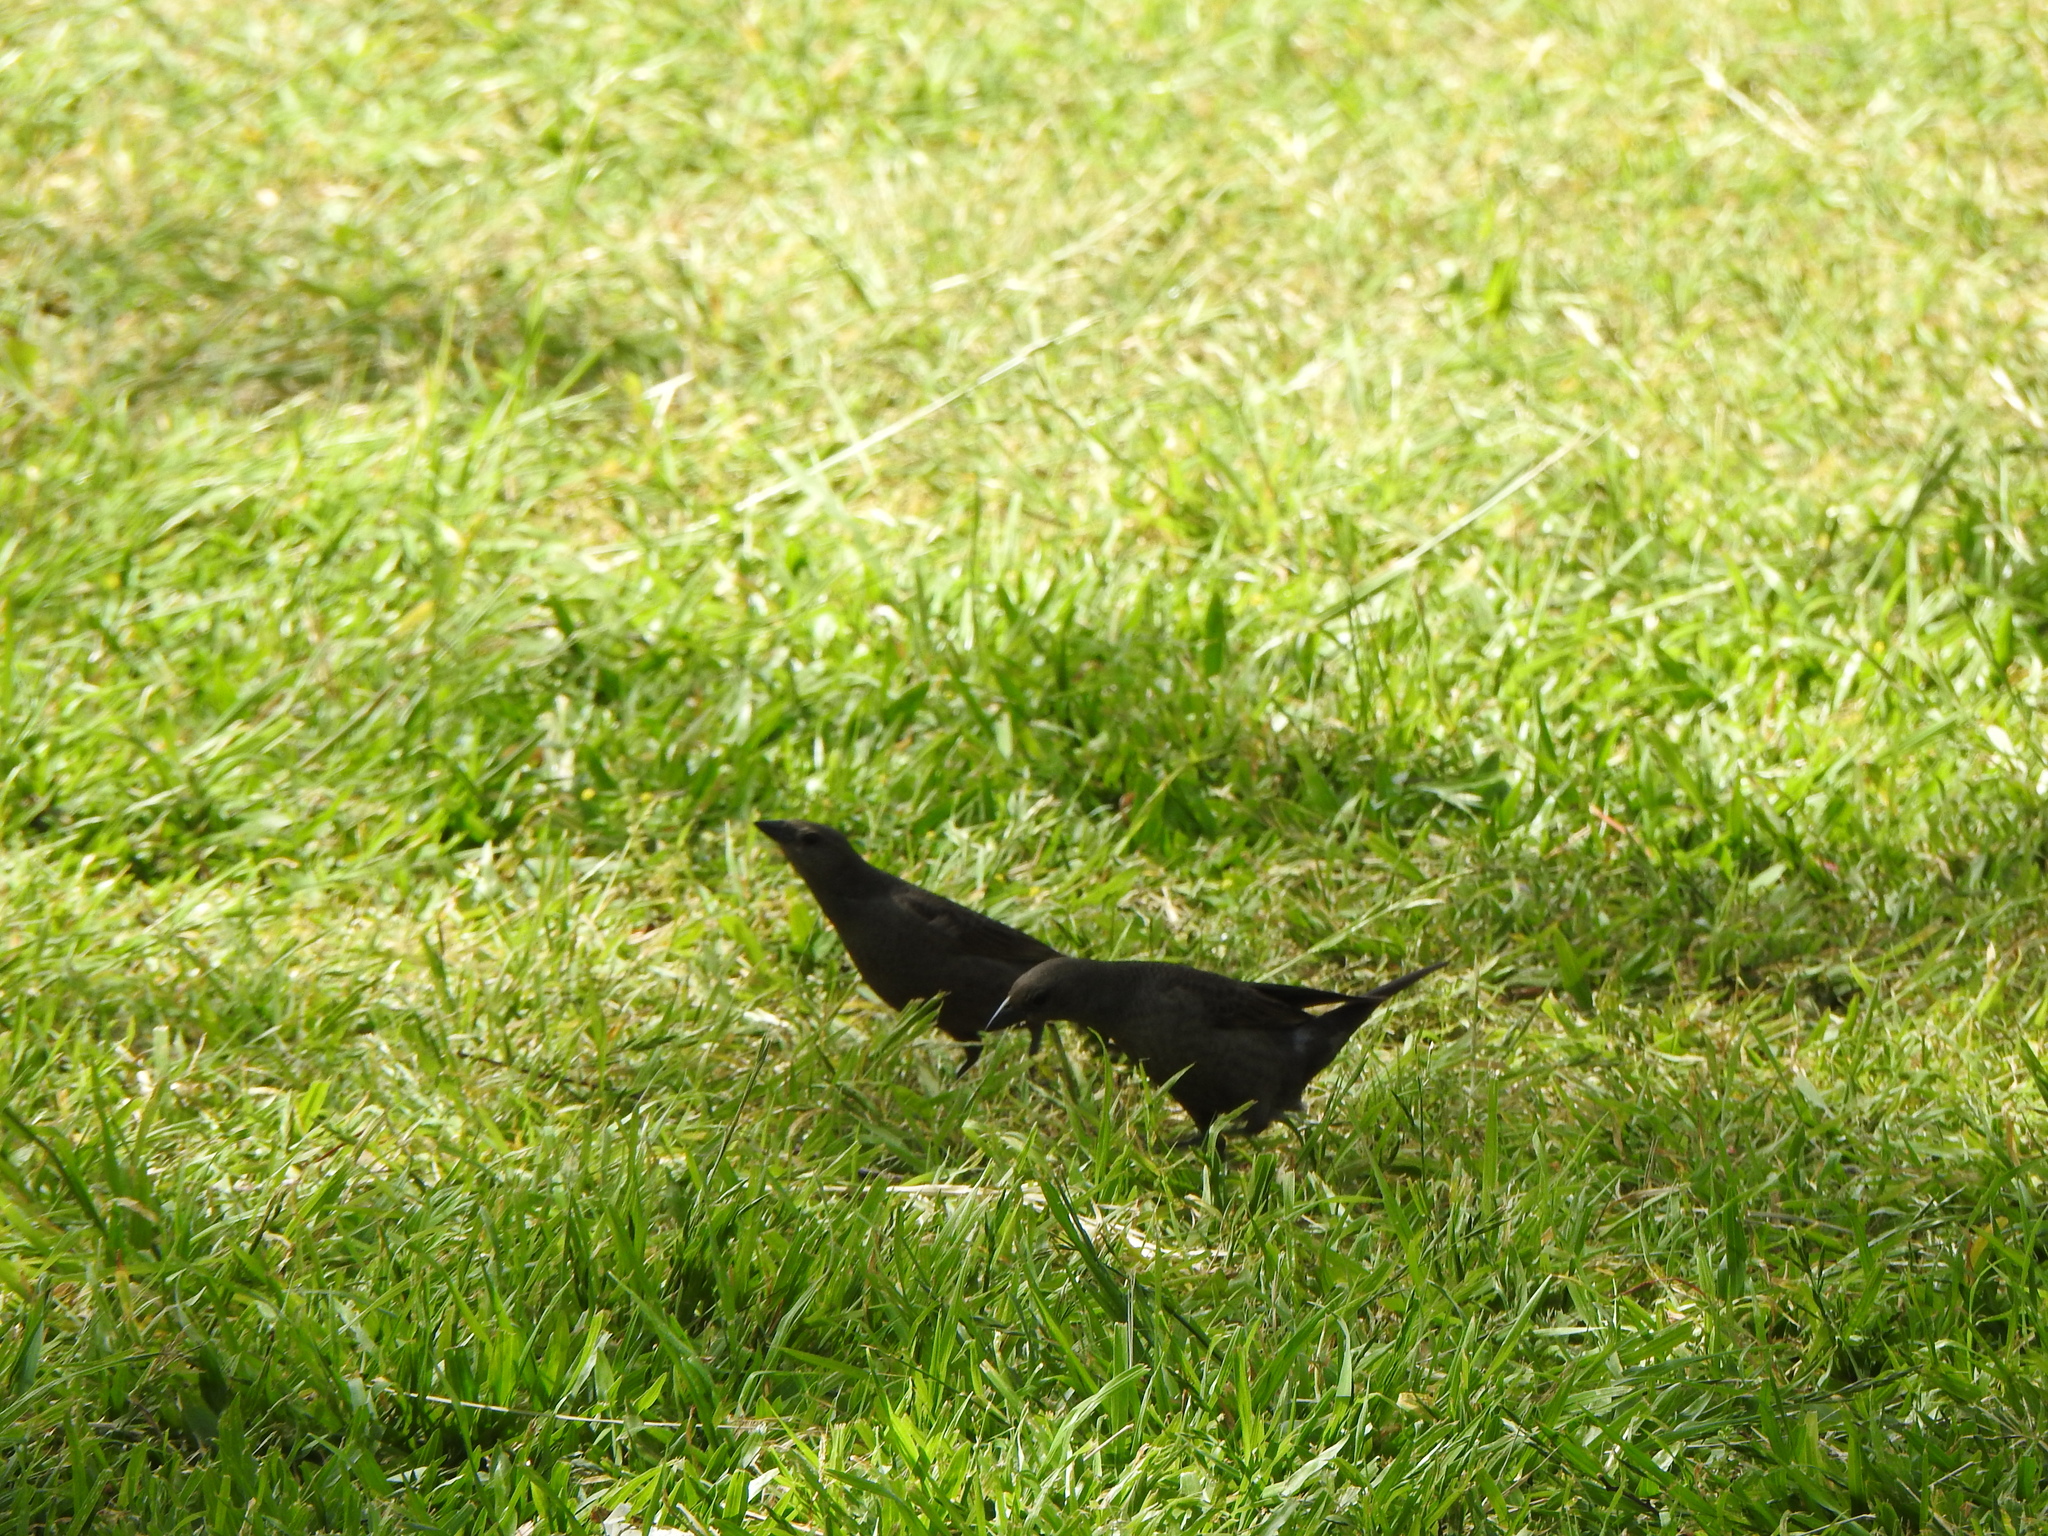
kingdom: Animalia
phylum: Chordata
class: Aves
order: Passeriformes
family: Icteridae
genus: Molothrus
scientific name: Molothrus bonariensis
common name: Shiny cowbird
